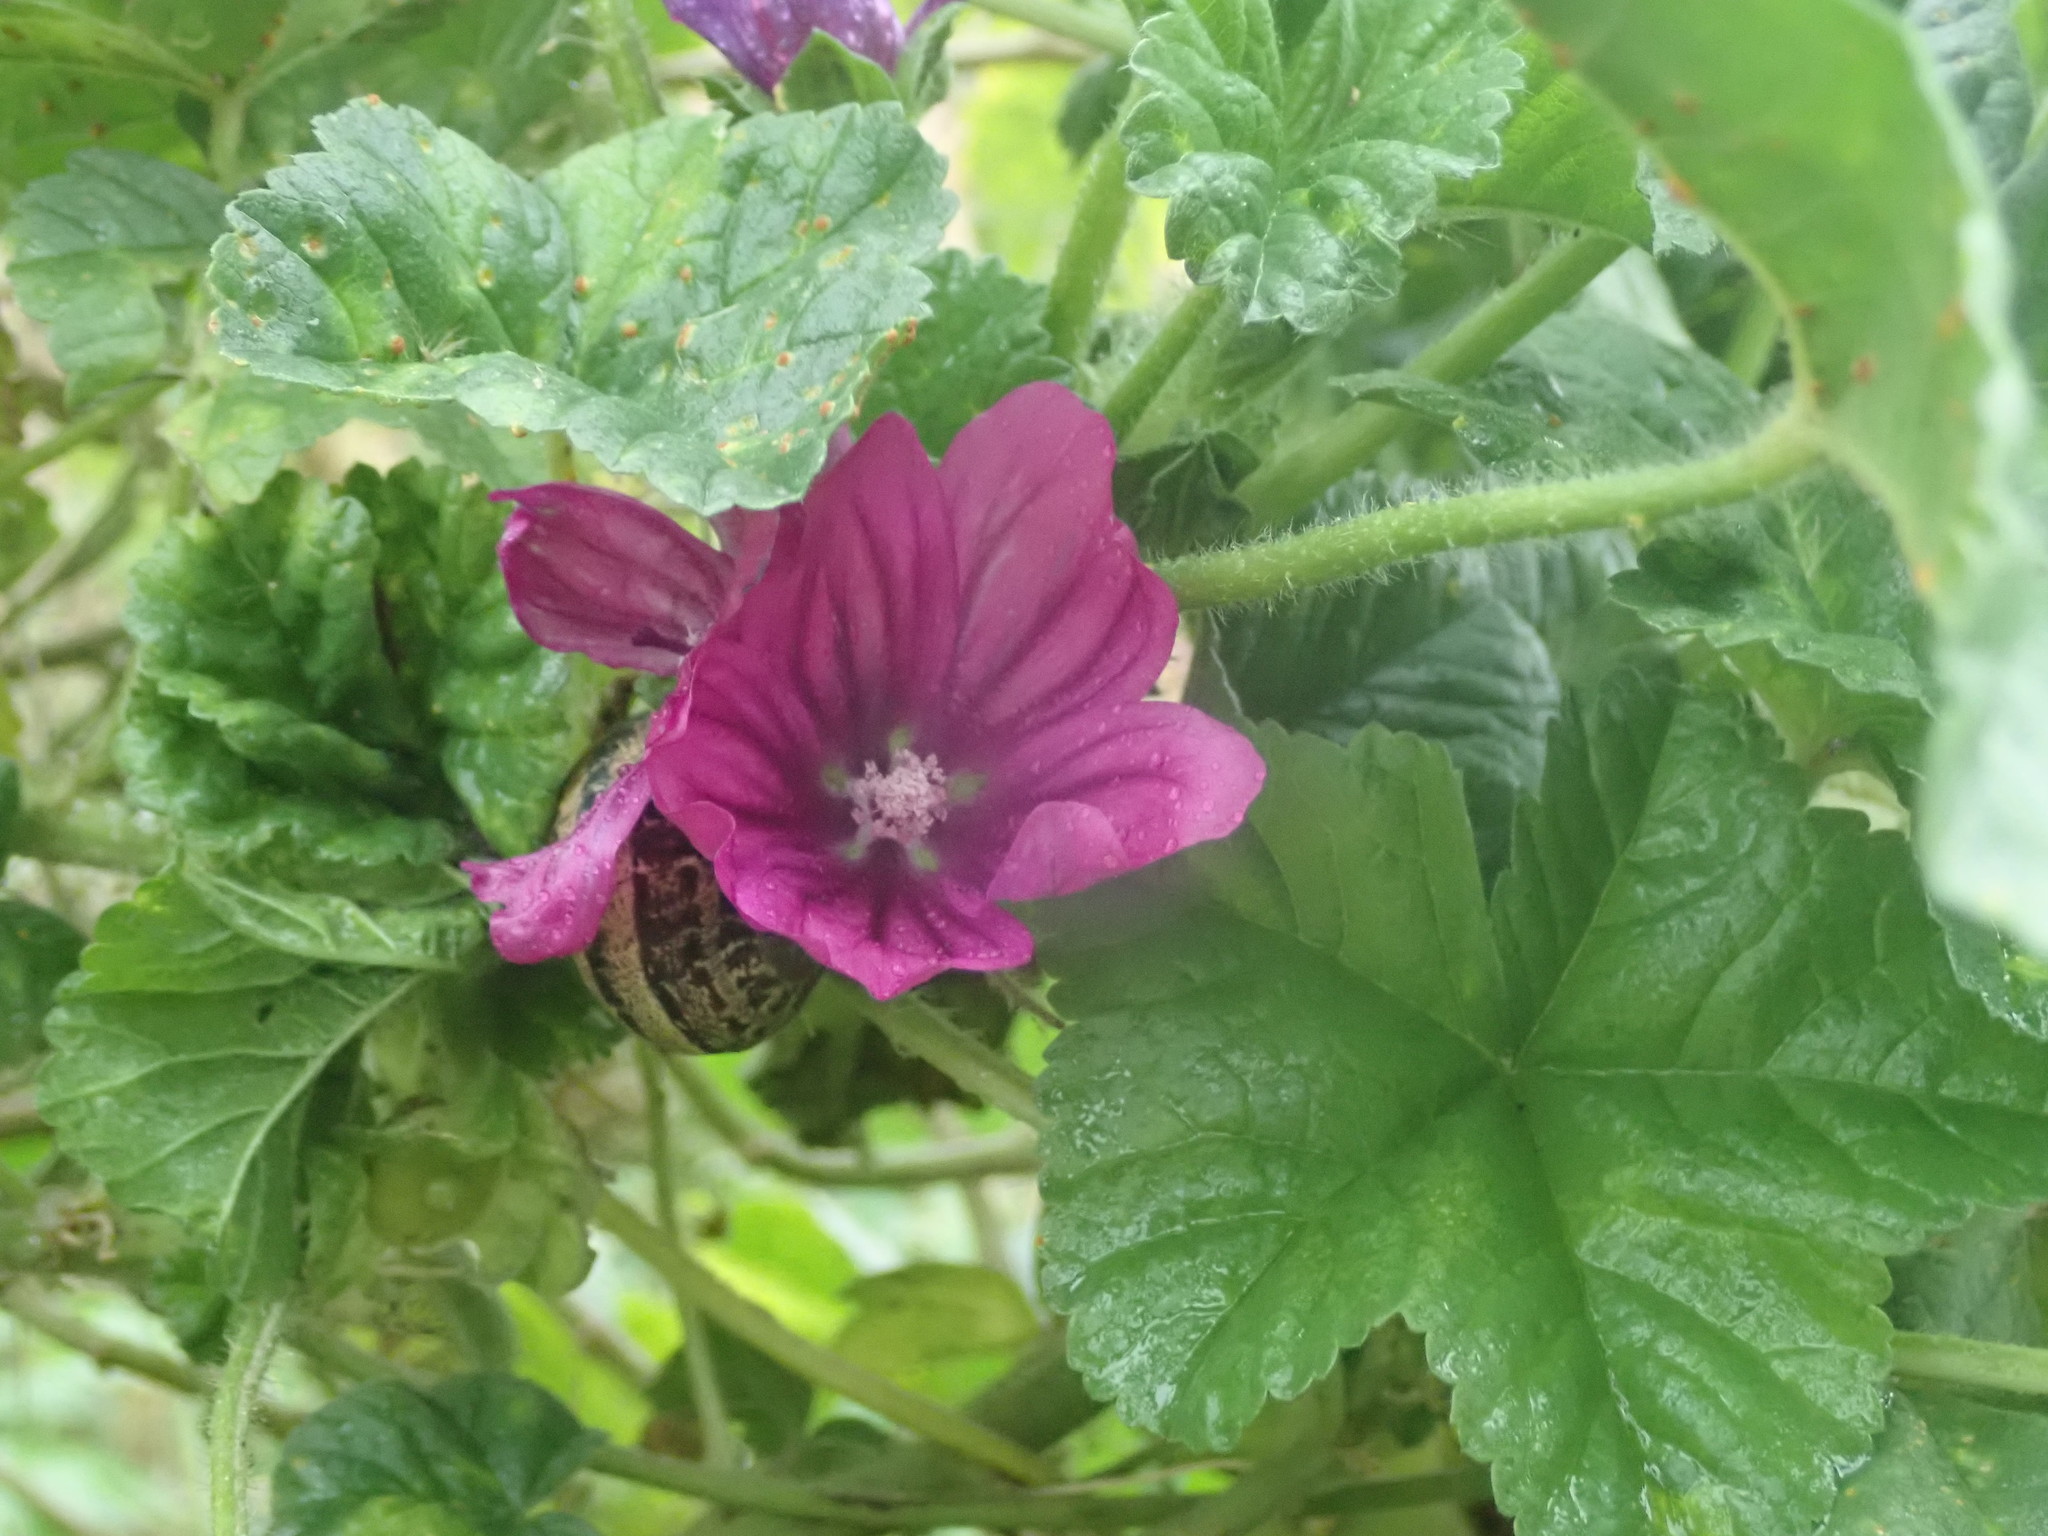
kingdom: Plantae
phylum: Tracheophyta
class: Magnoliopsida
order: Malvales
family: Malvaceae
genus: Malva
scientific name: Malva sylvestris
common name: Common mallow
